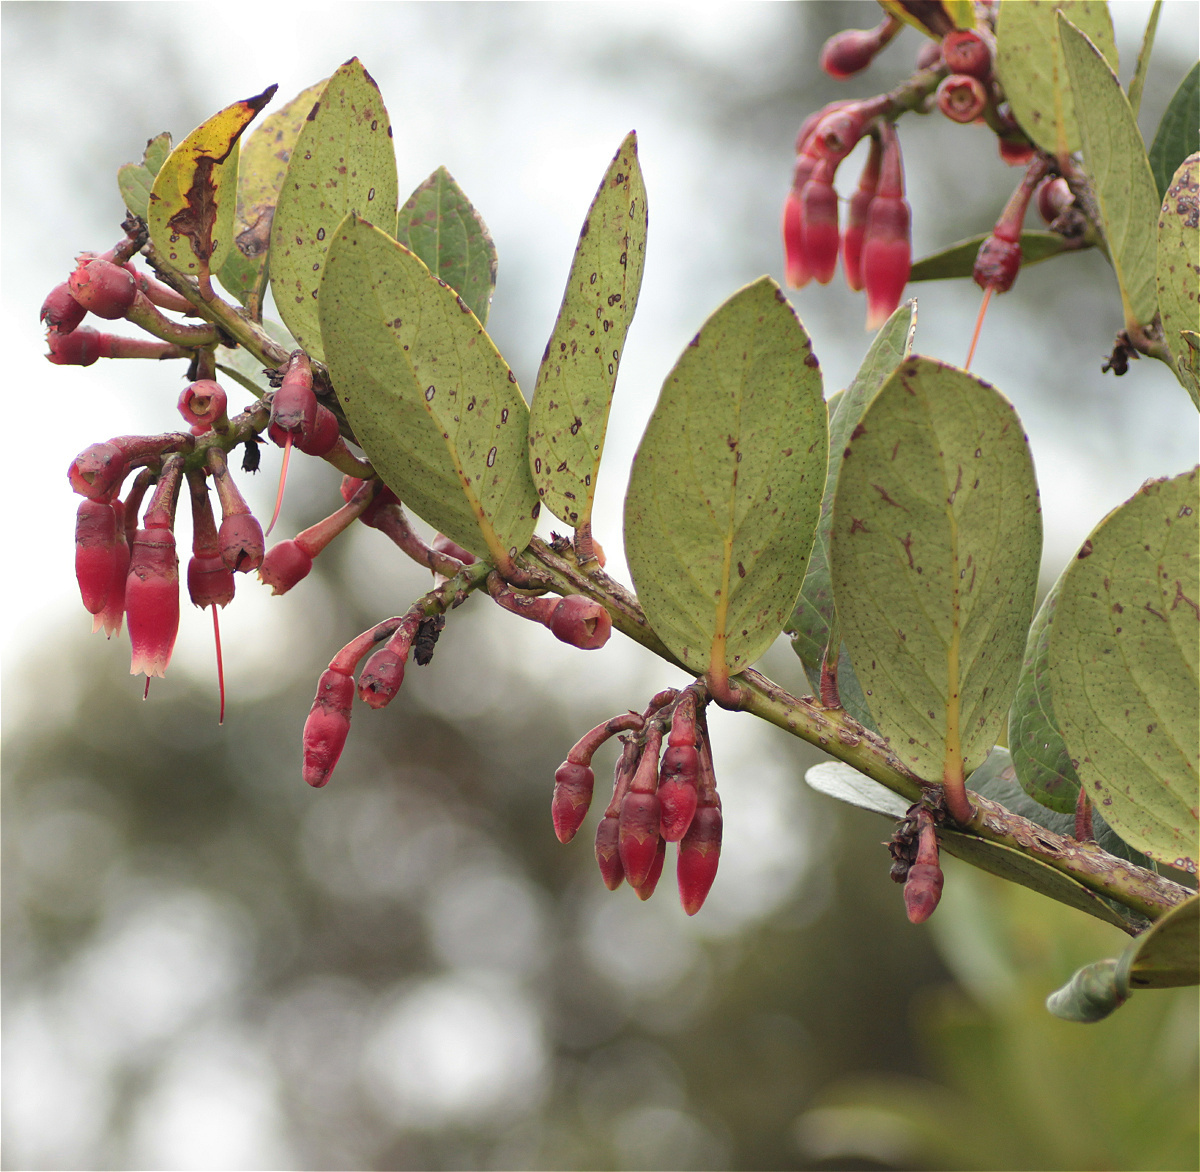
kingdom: Plantae
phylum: Tracheophyta
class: Magnoliopsida
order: Ericales
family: Ericaceae
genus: Macleania
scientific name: Macleania rupestris
